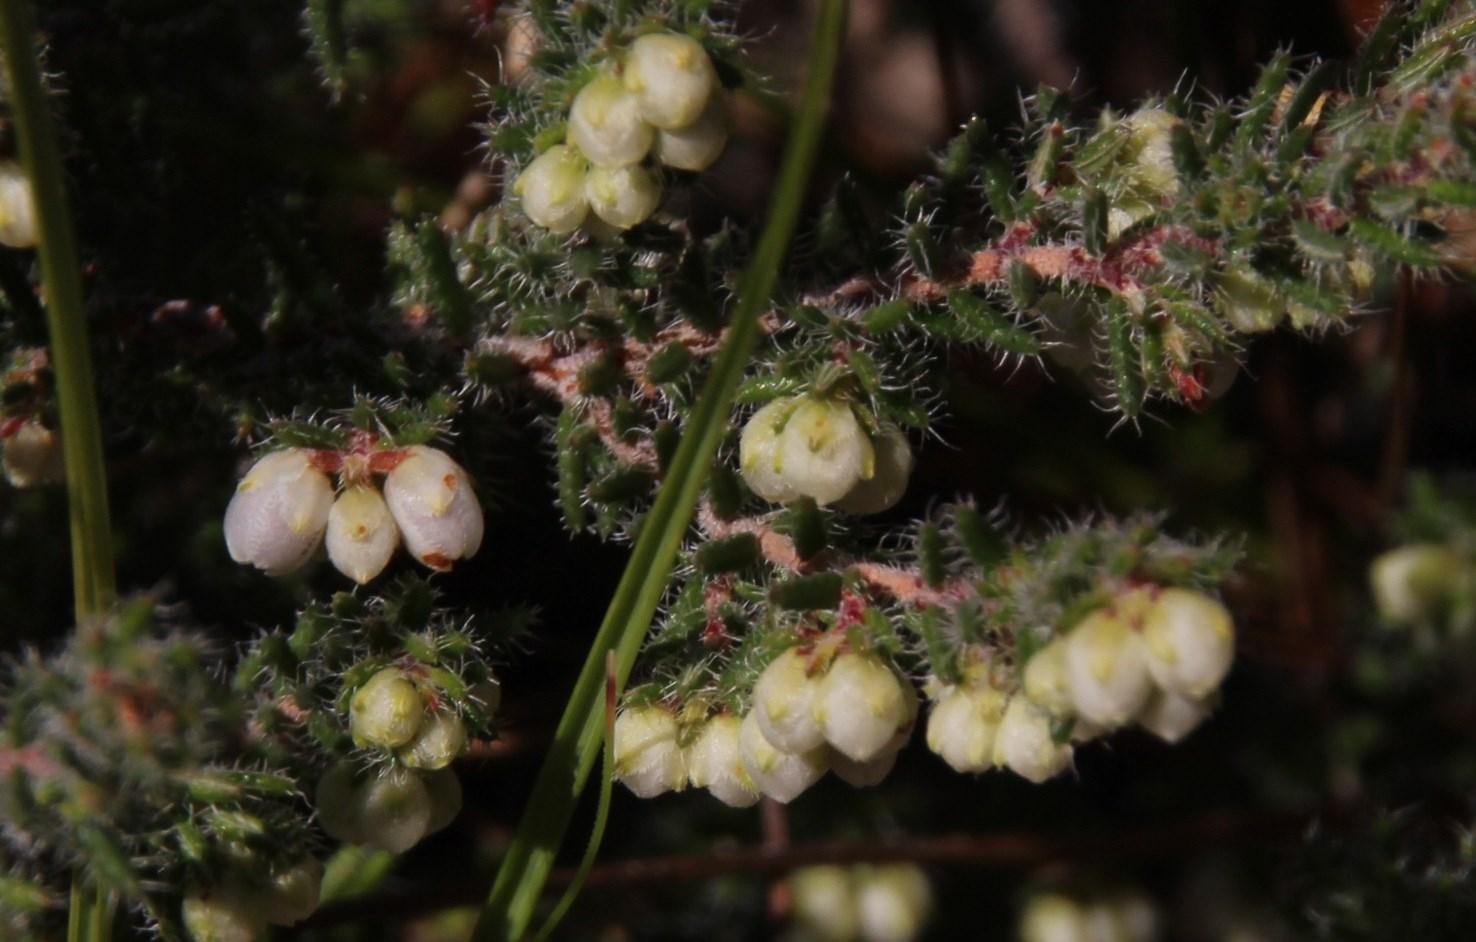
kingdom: Plantae
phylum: Tracheophyta
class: Magnoliopsida
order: Ericales
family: Ericaceae
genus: Erica
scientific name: Erica totta
